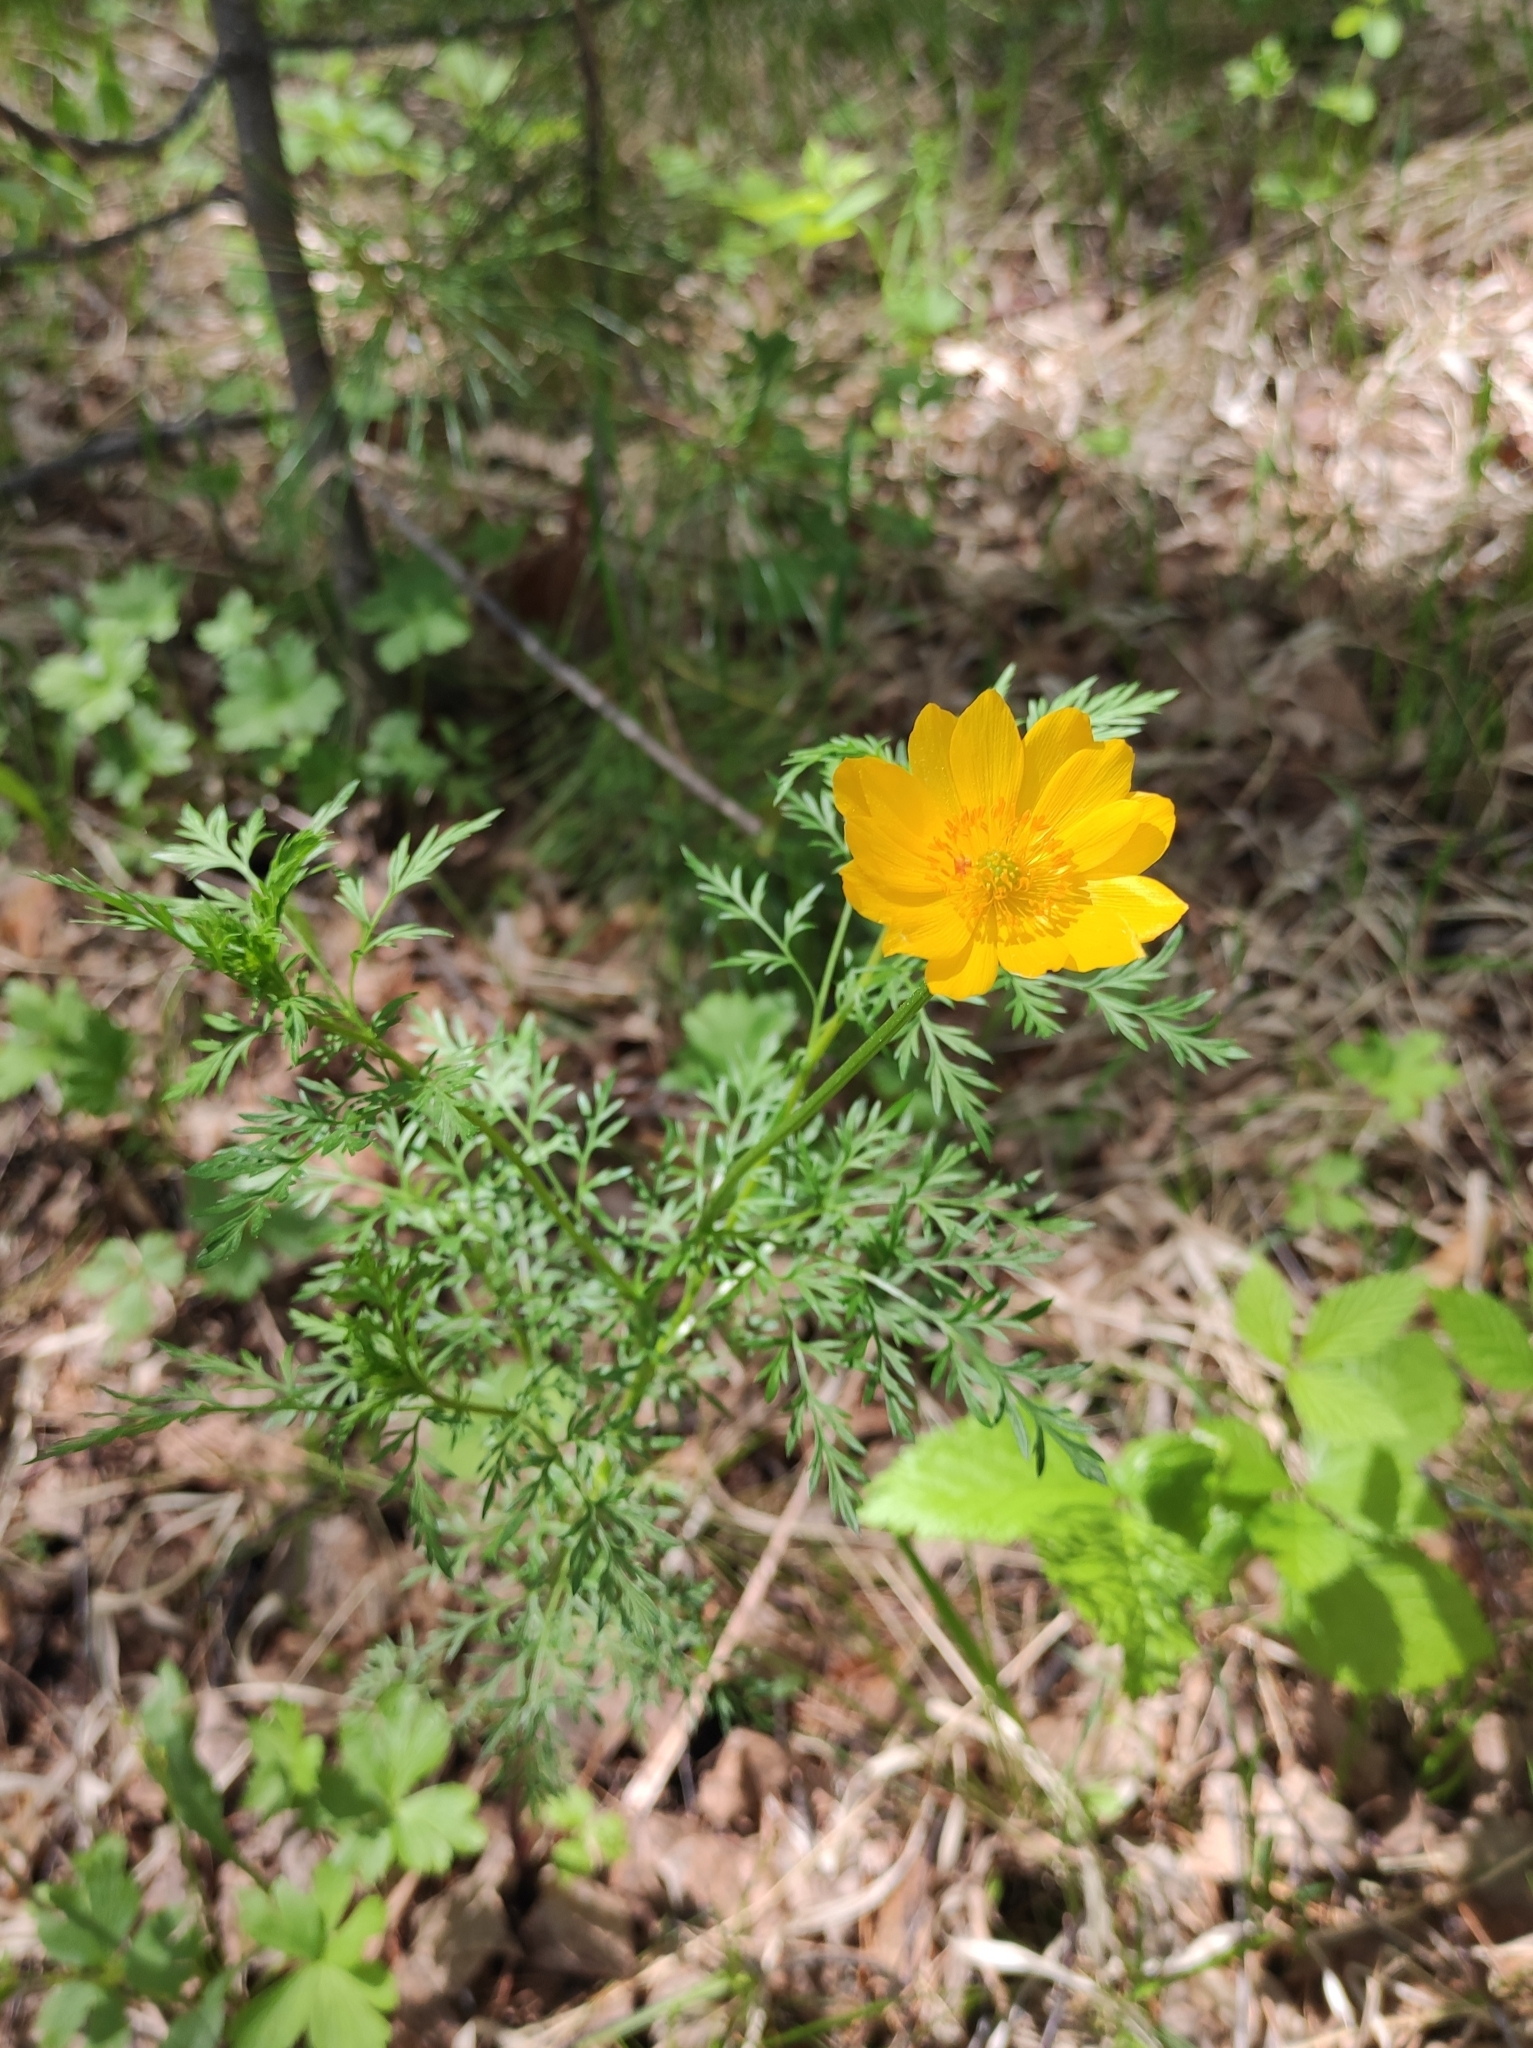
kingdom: Plantae
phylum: Tracheophyta
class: Magnoliopsida
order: Ranunculales
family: Ranunculaceae
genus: Adonis
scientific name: Adonis
